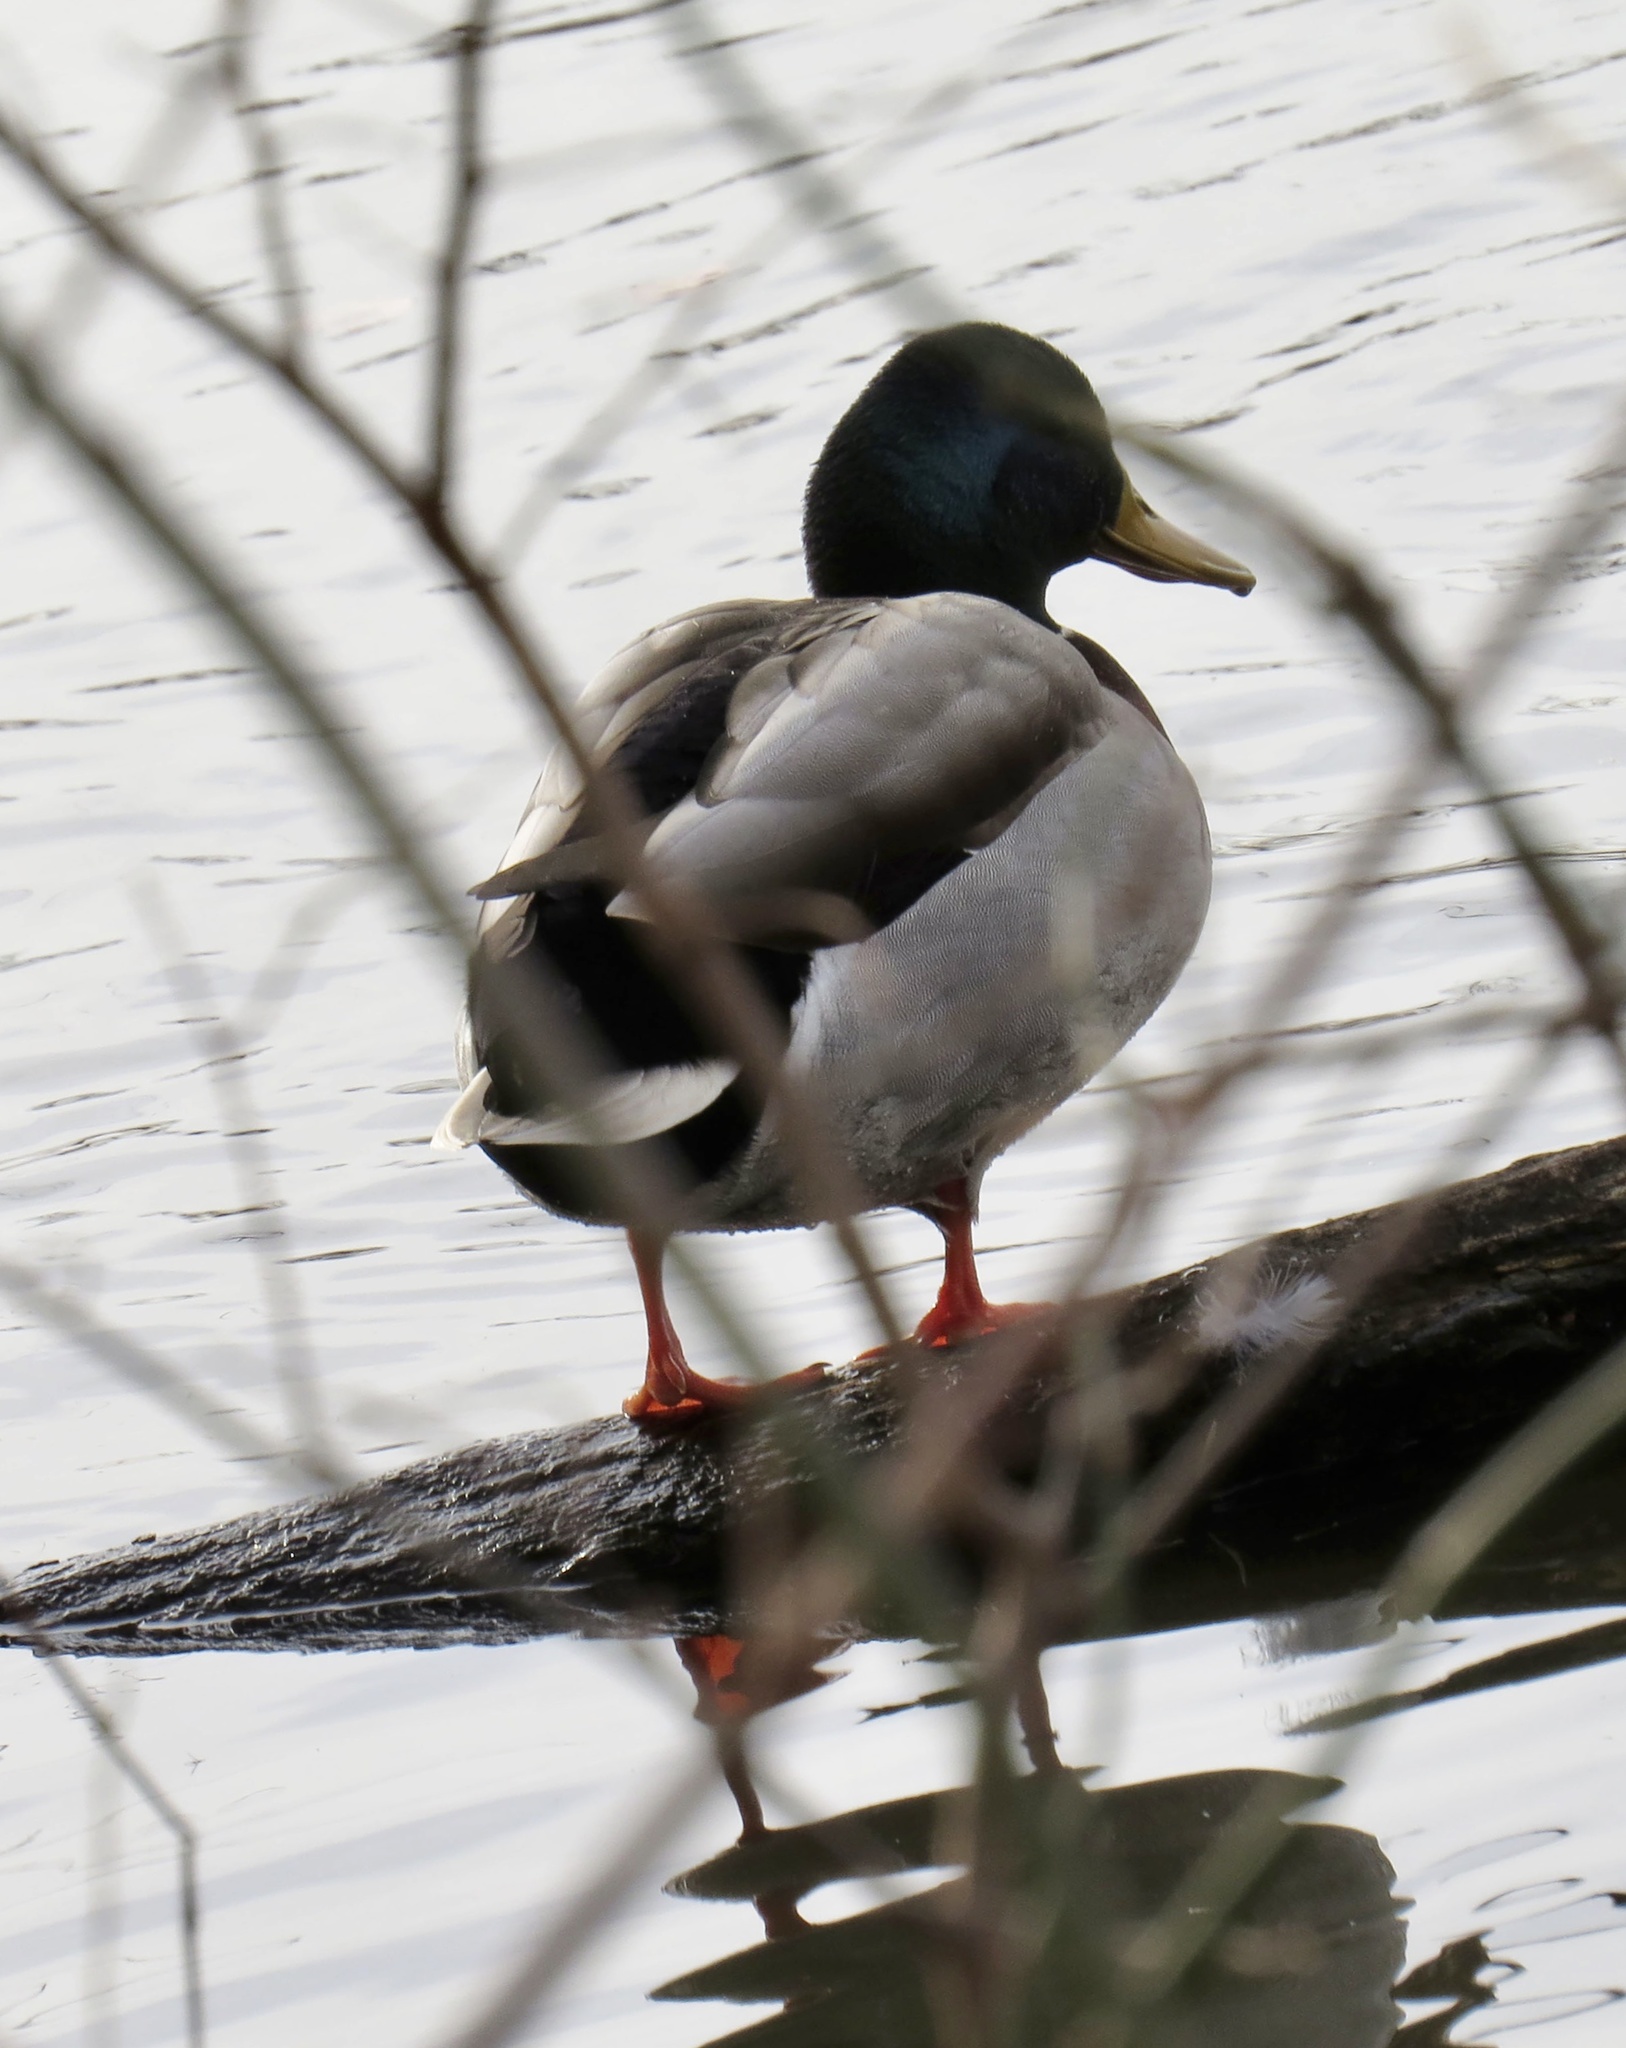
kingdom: Animalia
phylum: Chordata
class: Aves
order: Anseriformes
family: Anatidae
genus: Anas
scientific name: Anas platyrhynchos
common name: Mallard
